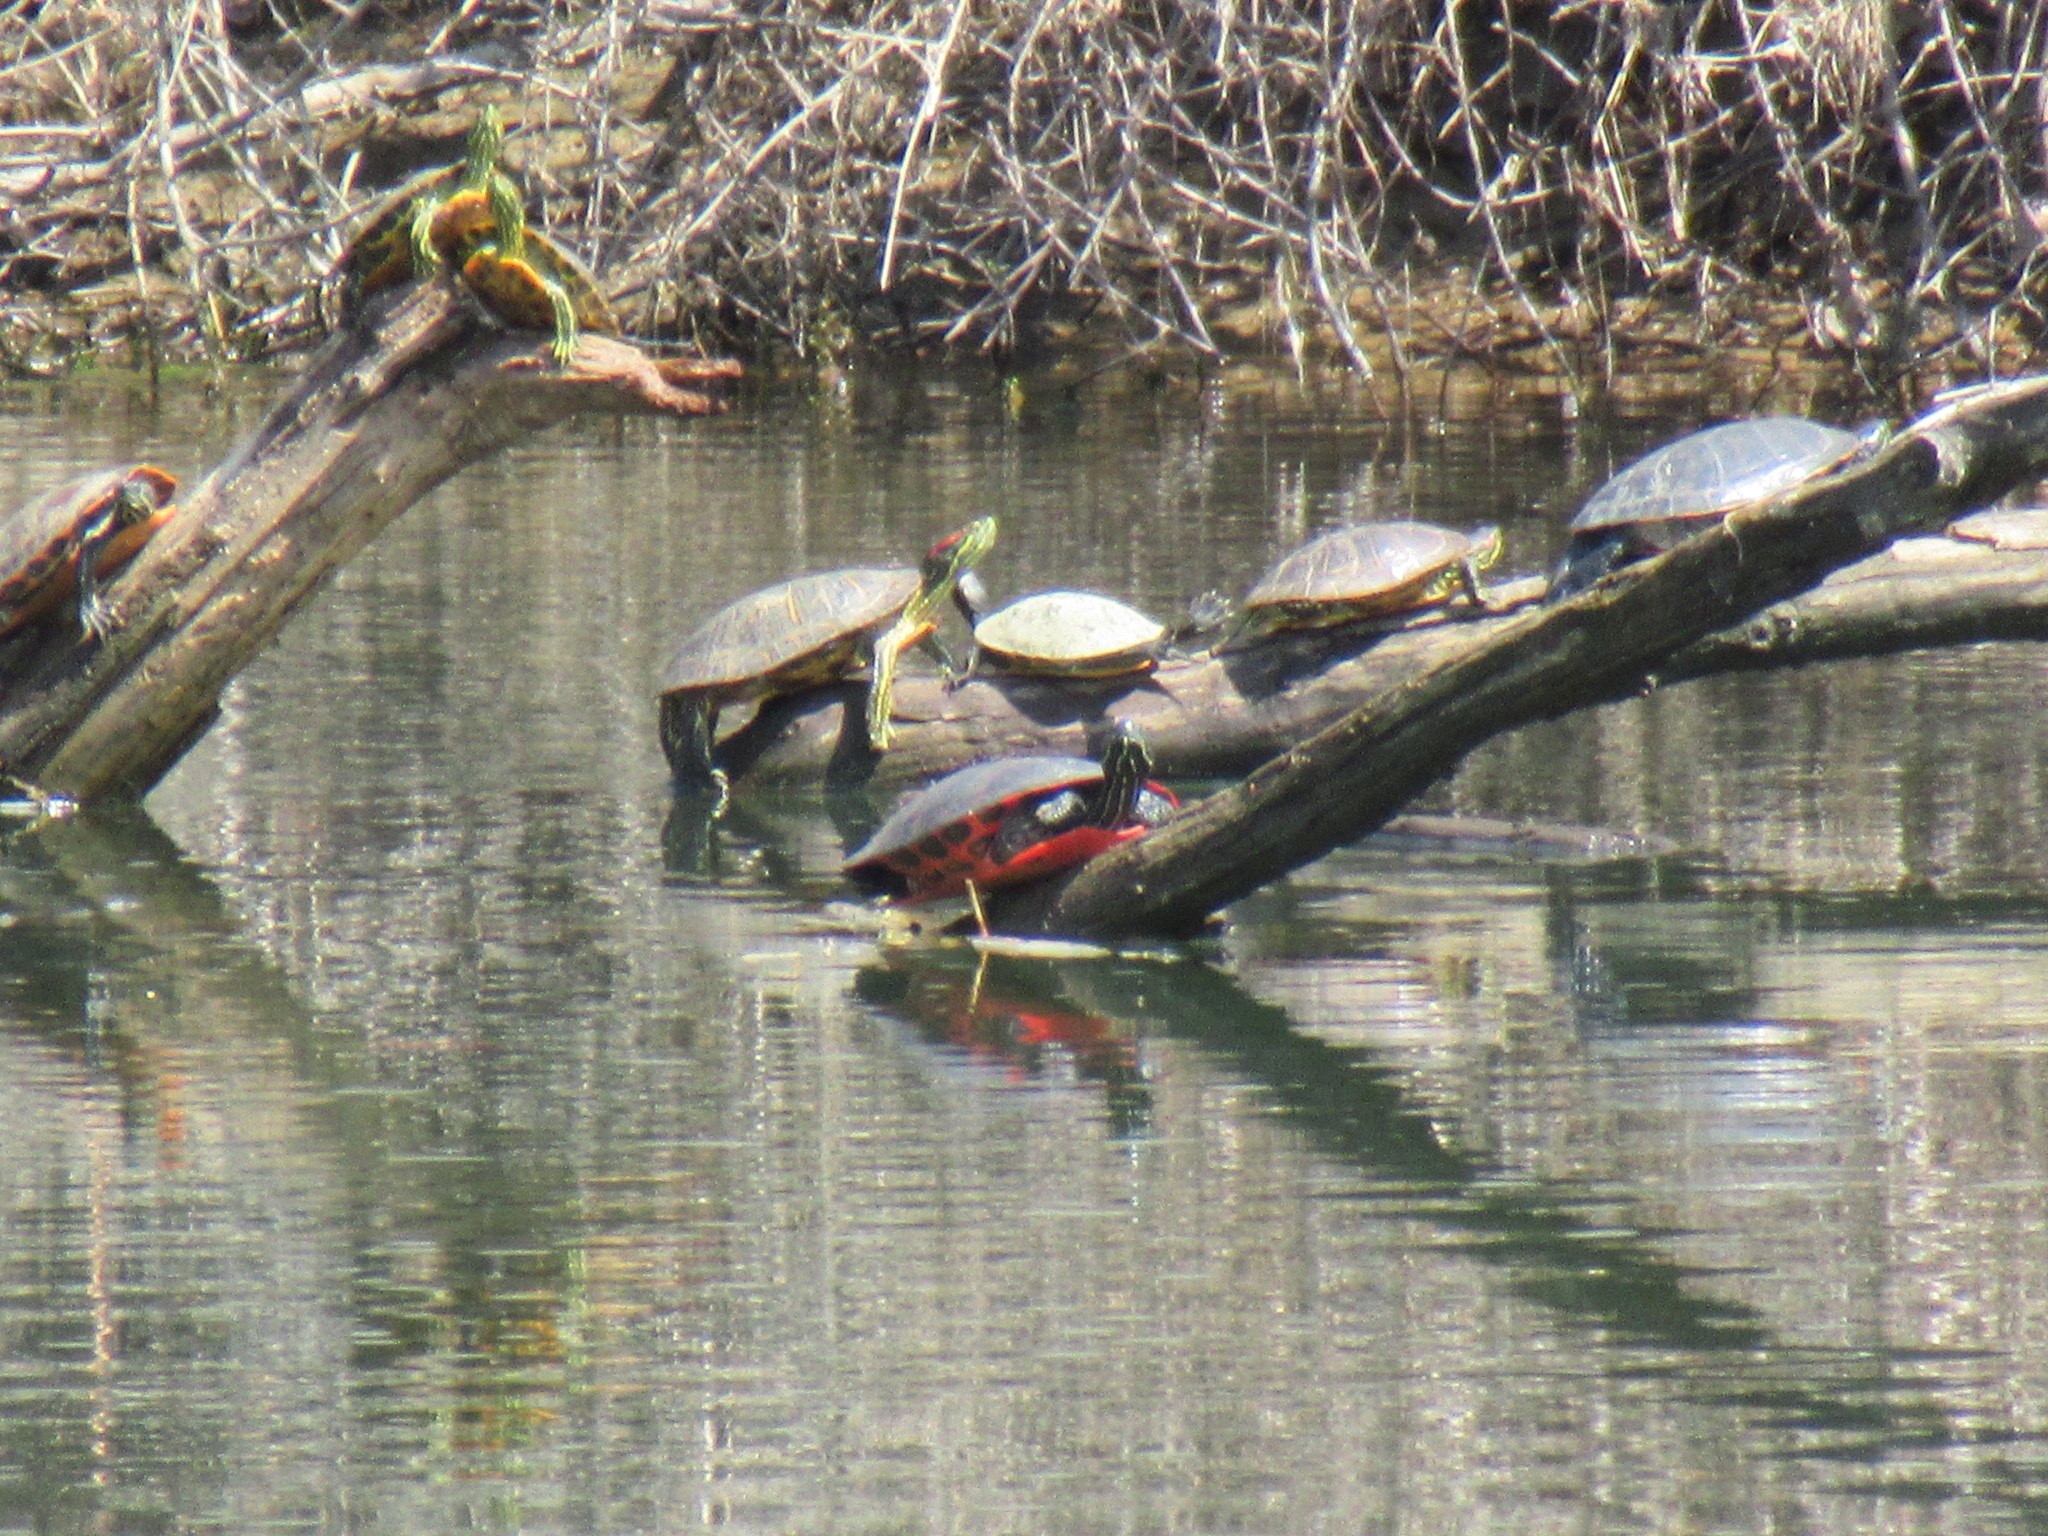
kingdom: Animalia
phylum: Chordata
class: Testudines
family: Emydidae
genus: Pseudemys
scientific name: Pseudemys rubriventris
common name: American red-bellied turtle
